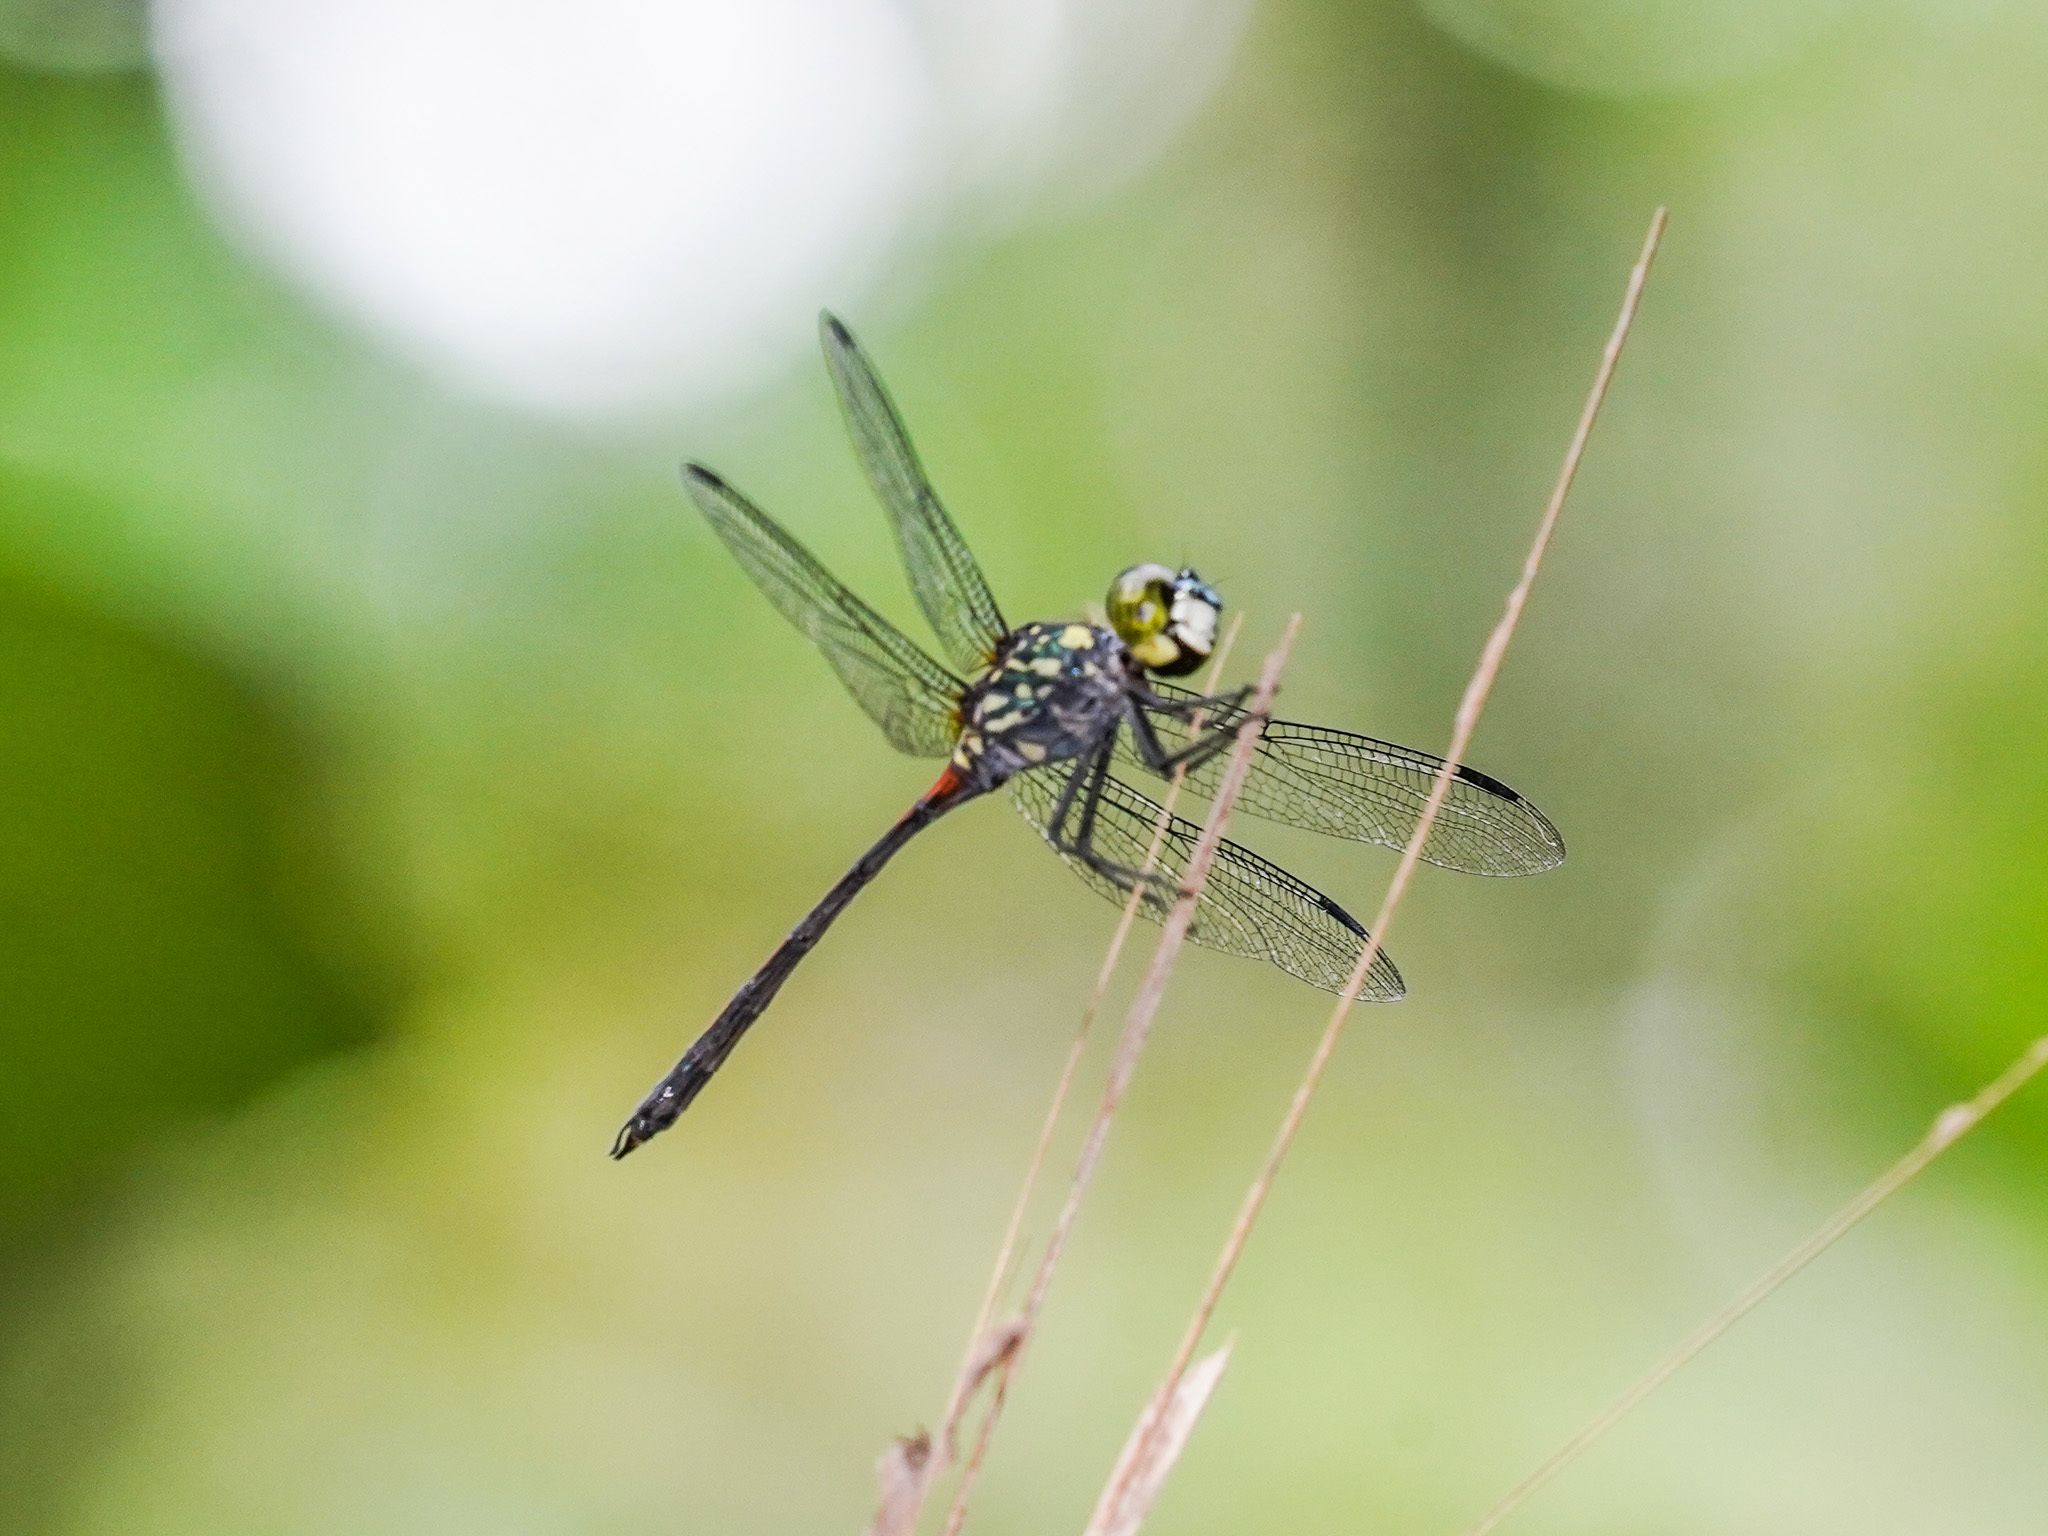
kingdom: Animalia
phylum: Arthropoda
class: Insecta
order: Odonata
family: Libellulidae
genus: Agrionoptera
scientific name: Agrionoptera insignis
